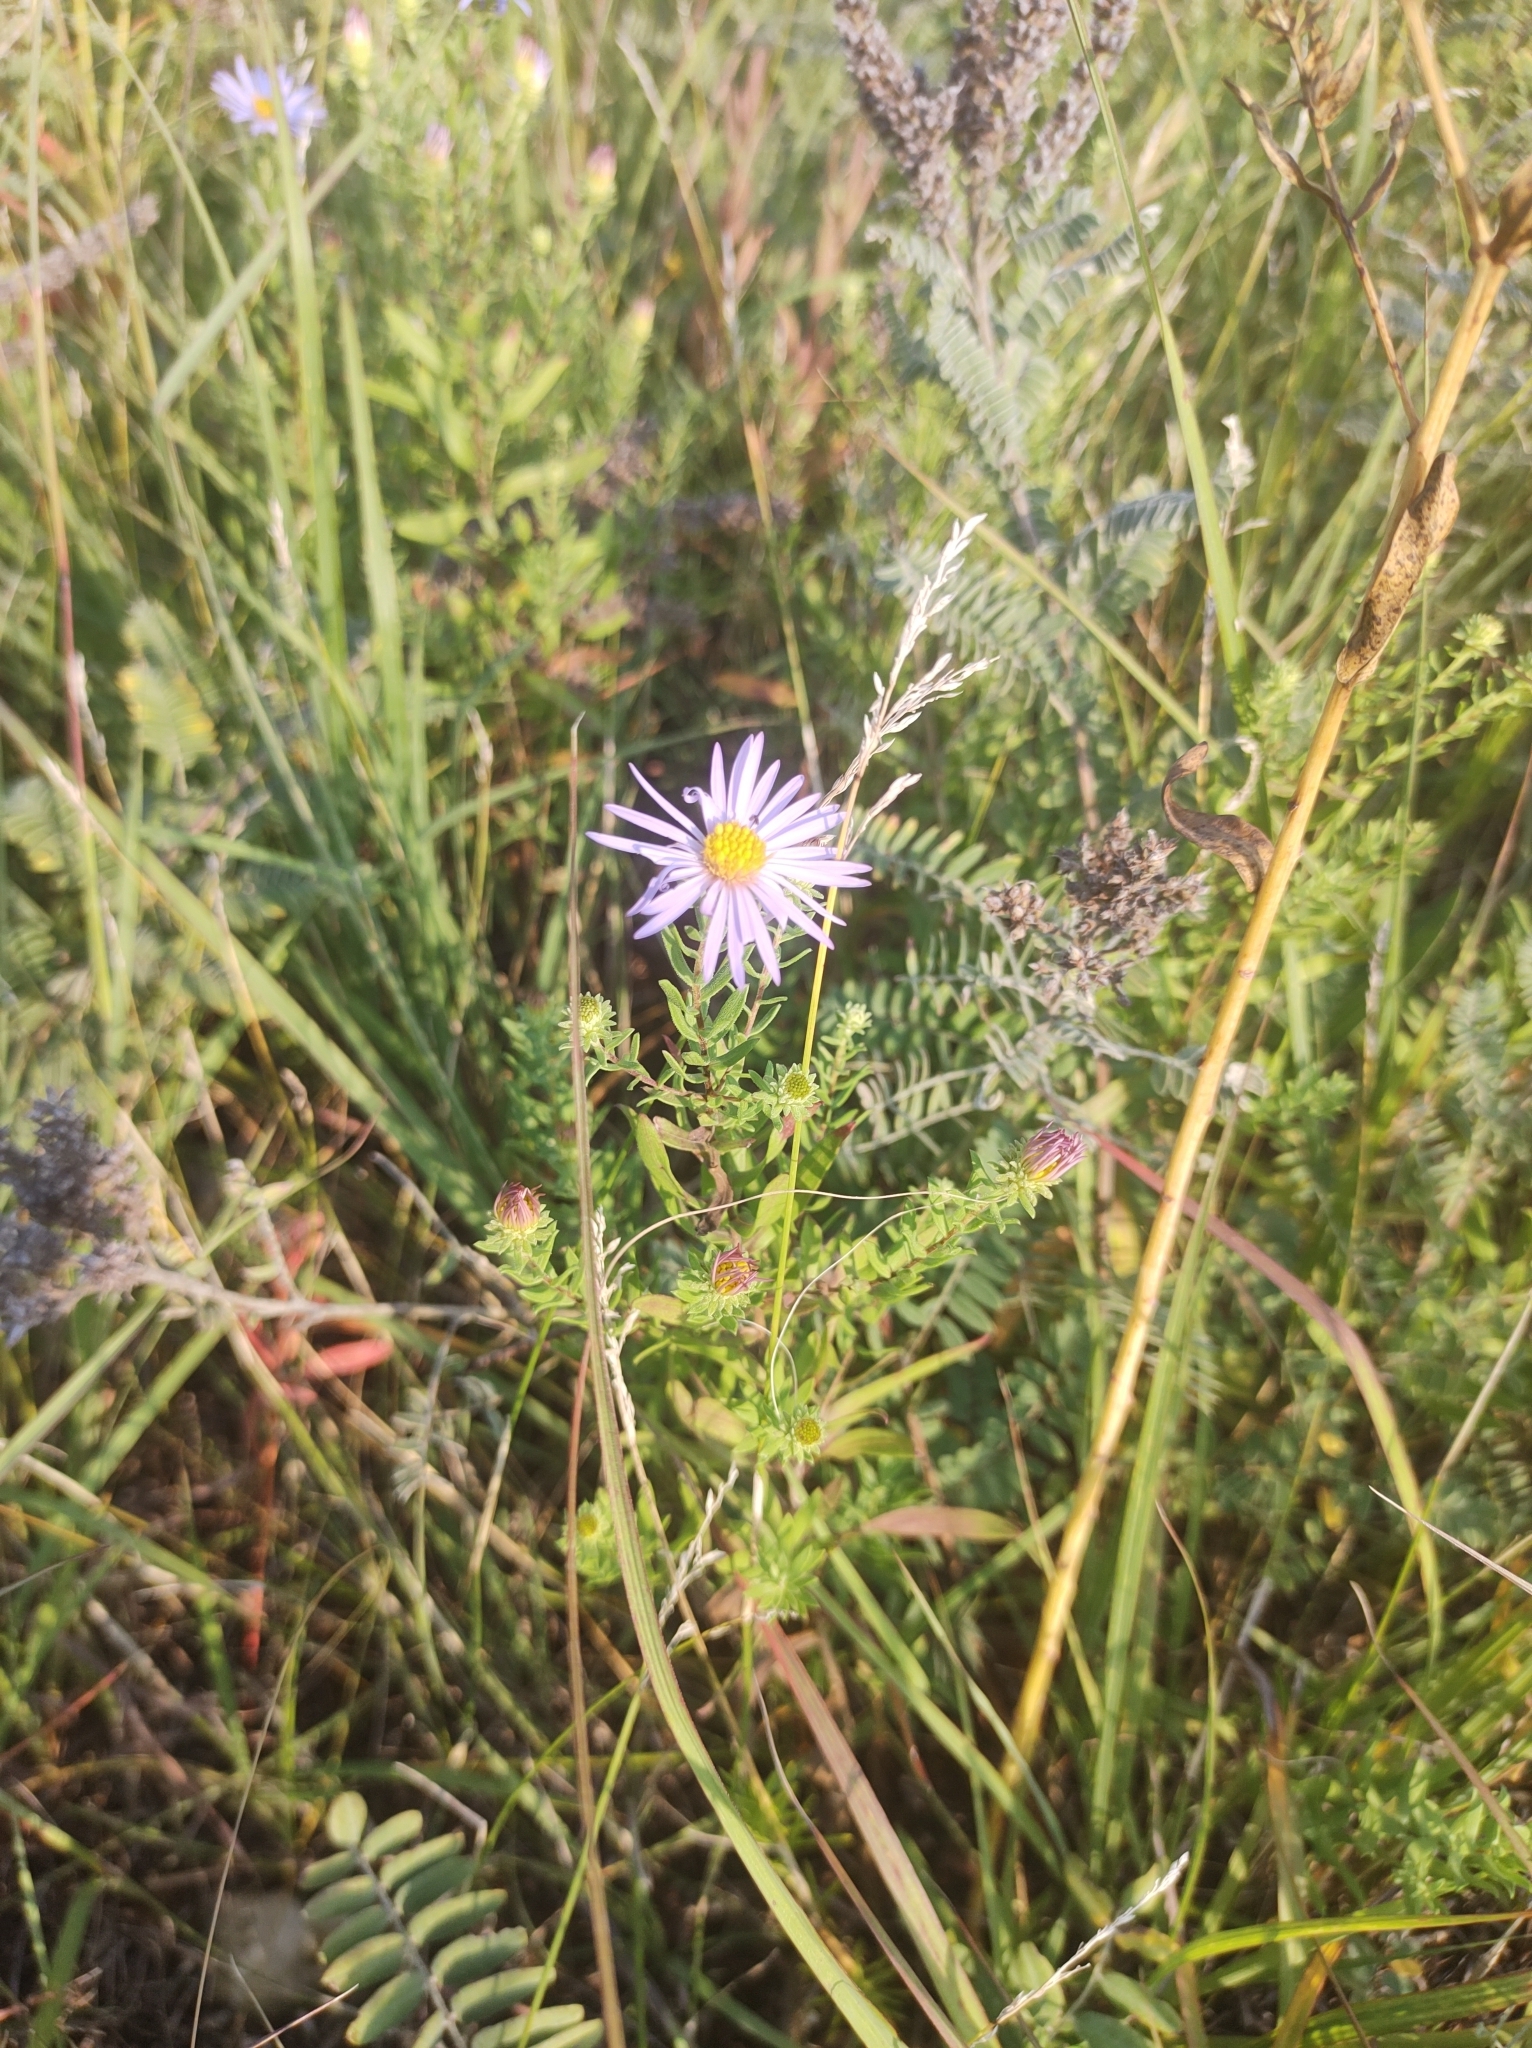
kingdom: Plantae
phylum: Tracheophyta
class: Magnoliopsida
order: Asterales
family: Asteraceae
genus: Symphyotrichum
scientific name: Symphyotrichum oblongifolium
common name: Aromatic aster
